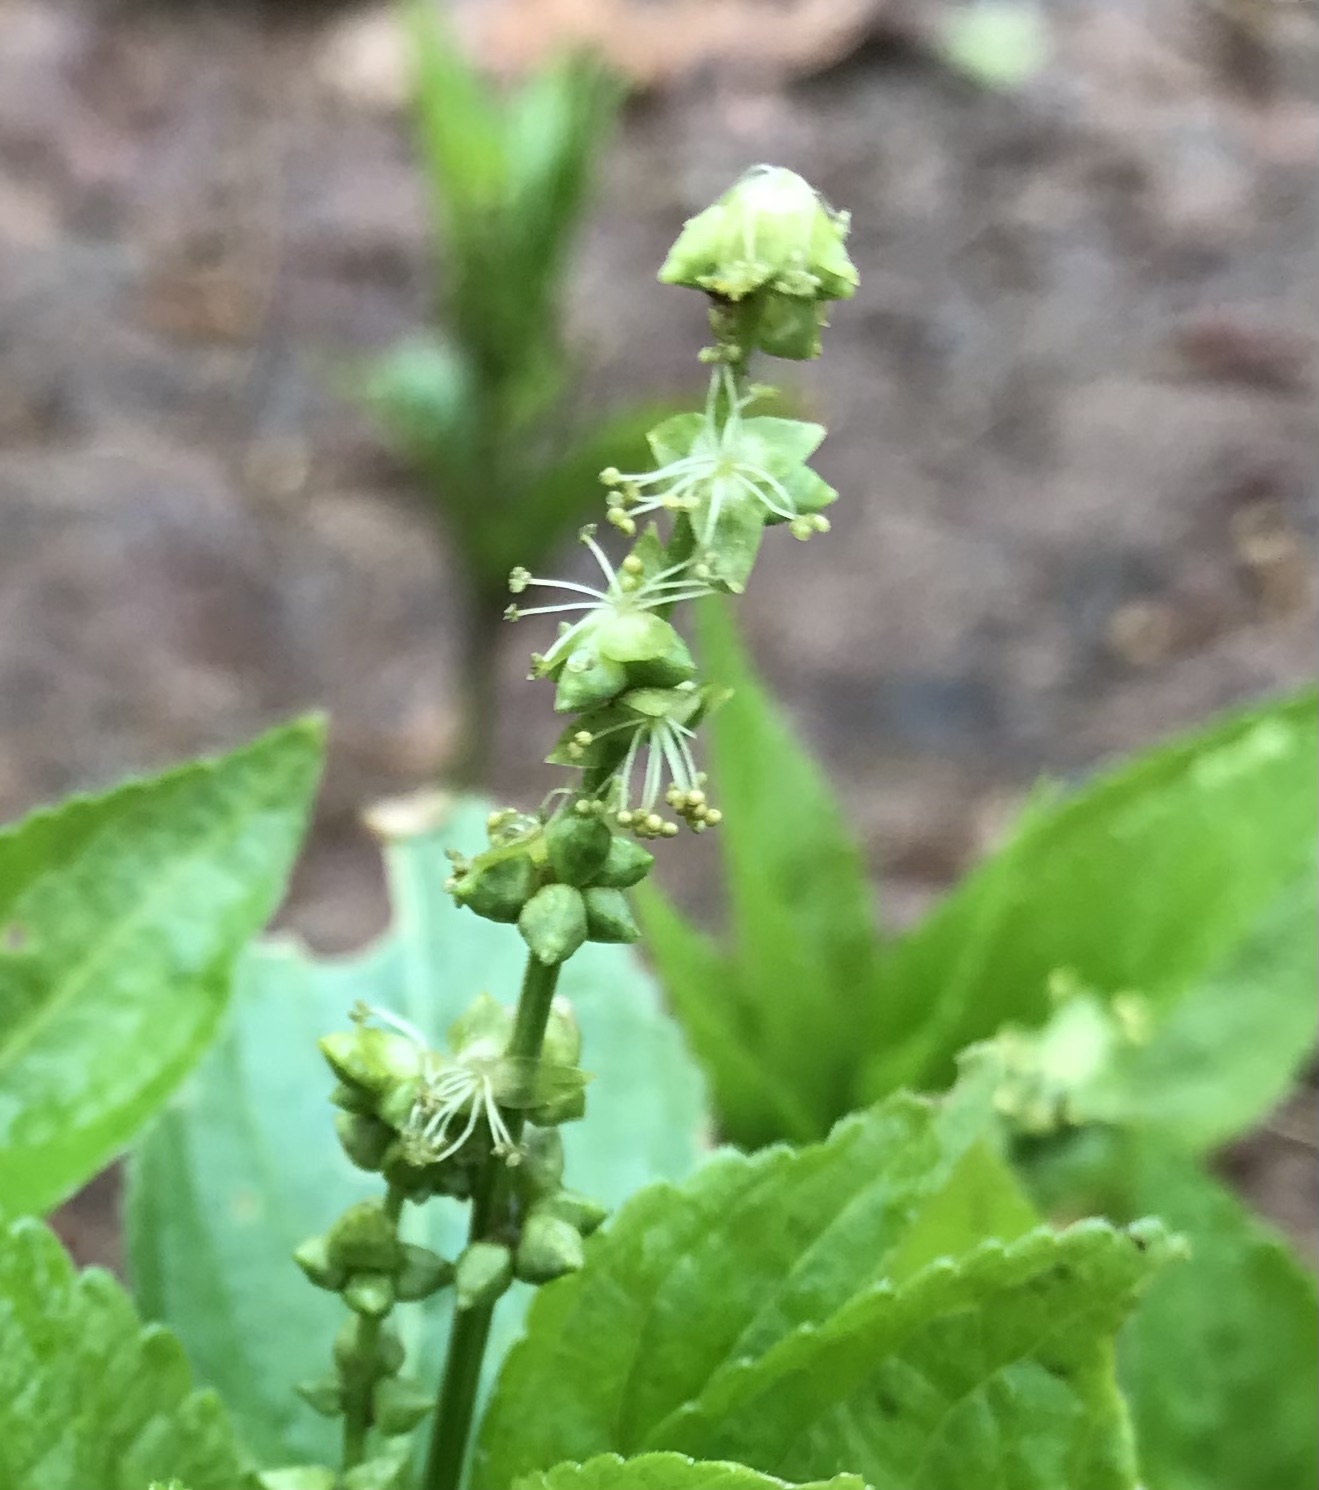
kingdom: Plantae
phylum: Tracheophyta
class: Magnoliopsida
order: Malpighiales
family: Euphorbiaceae
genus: Mercurialis
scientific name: Mercurialis perennis
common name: Dog mercury
